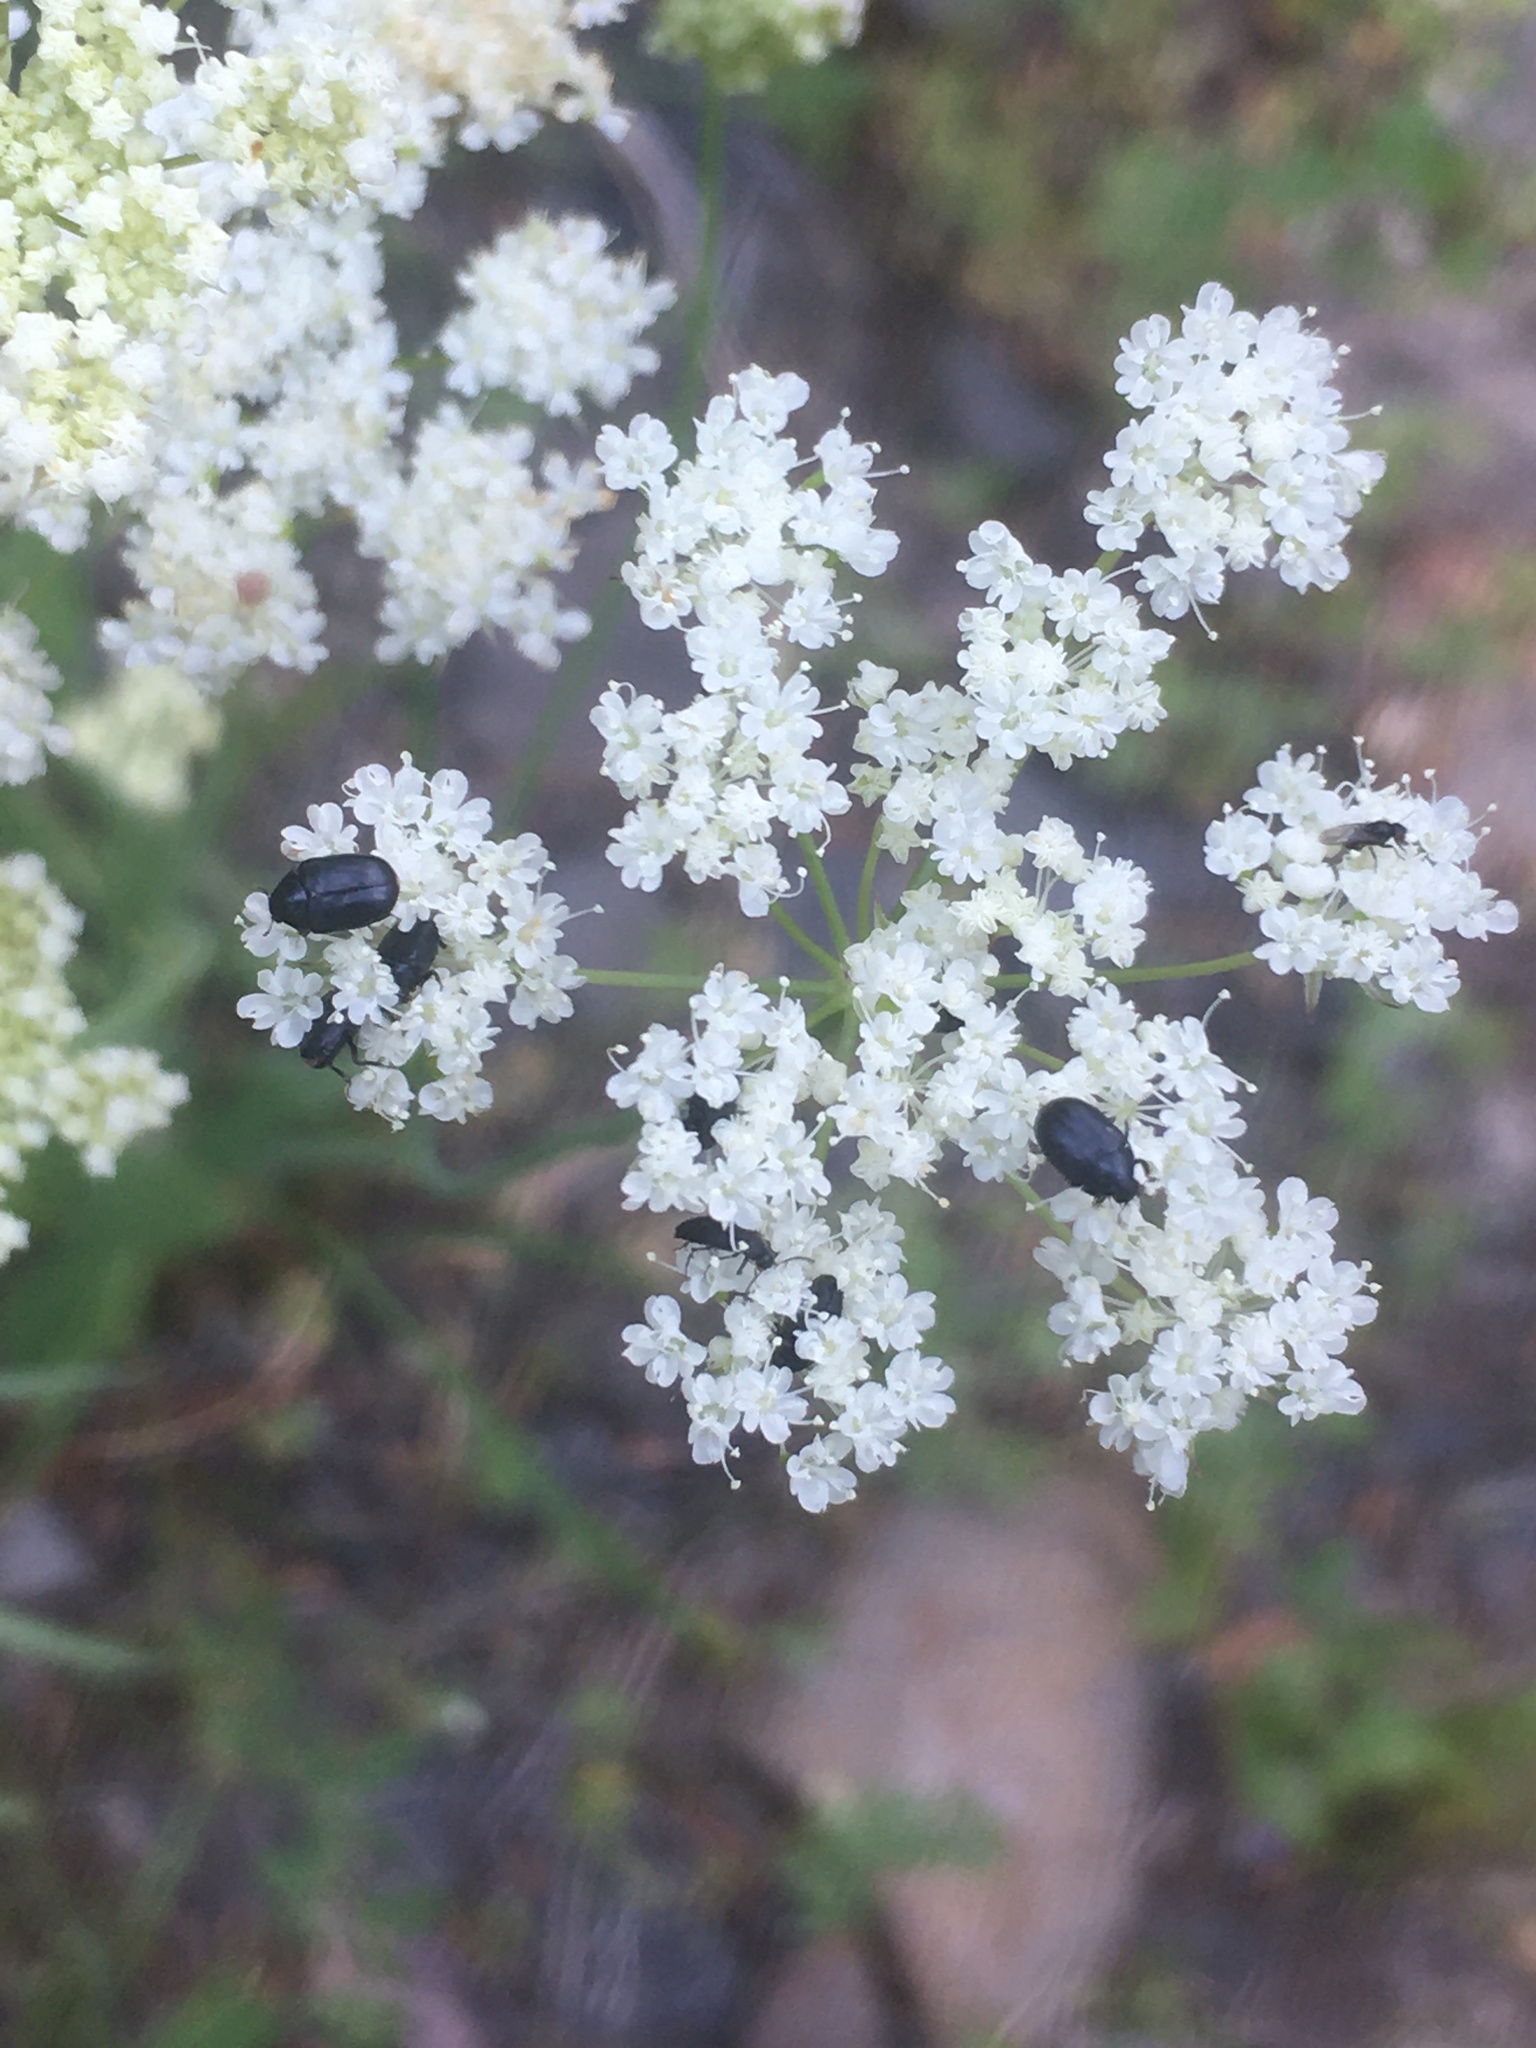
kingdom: Animalia
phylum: Arthropoda
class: Insecta
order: Coleoptera
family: Dermestidae
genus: Orphilus
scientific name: Orphilus subnitidus
